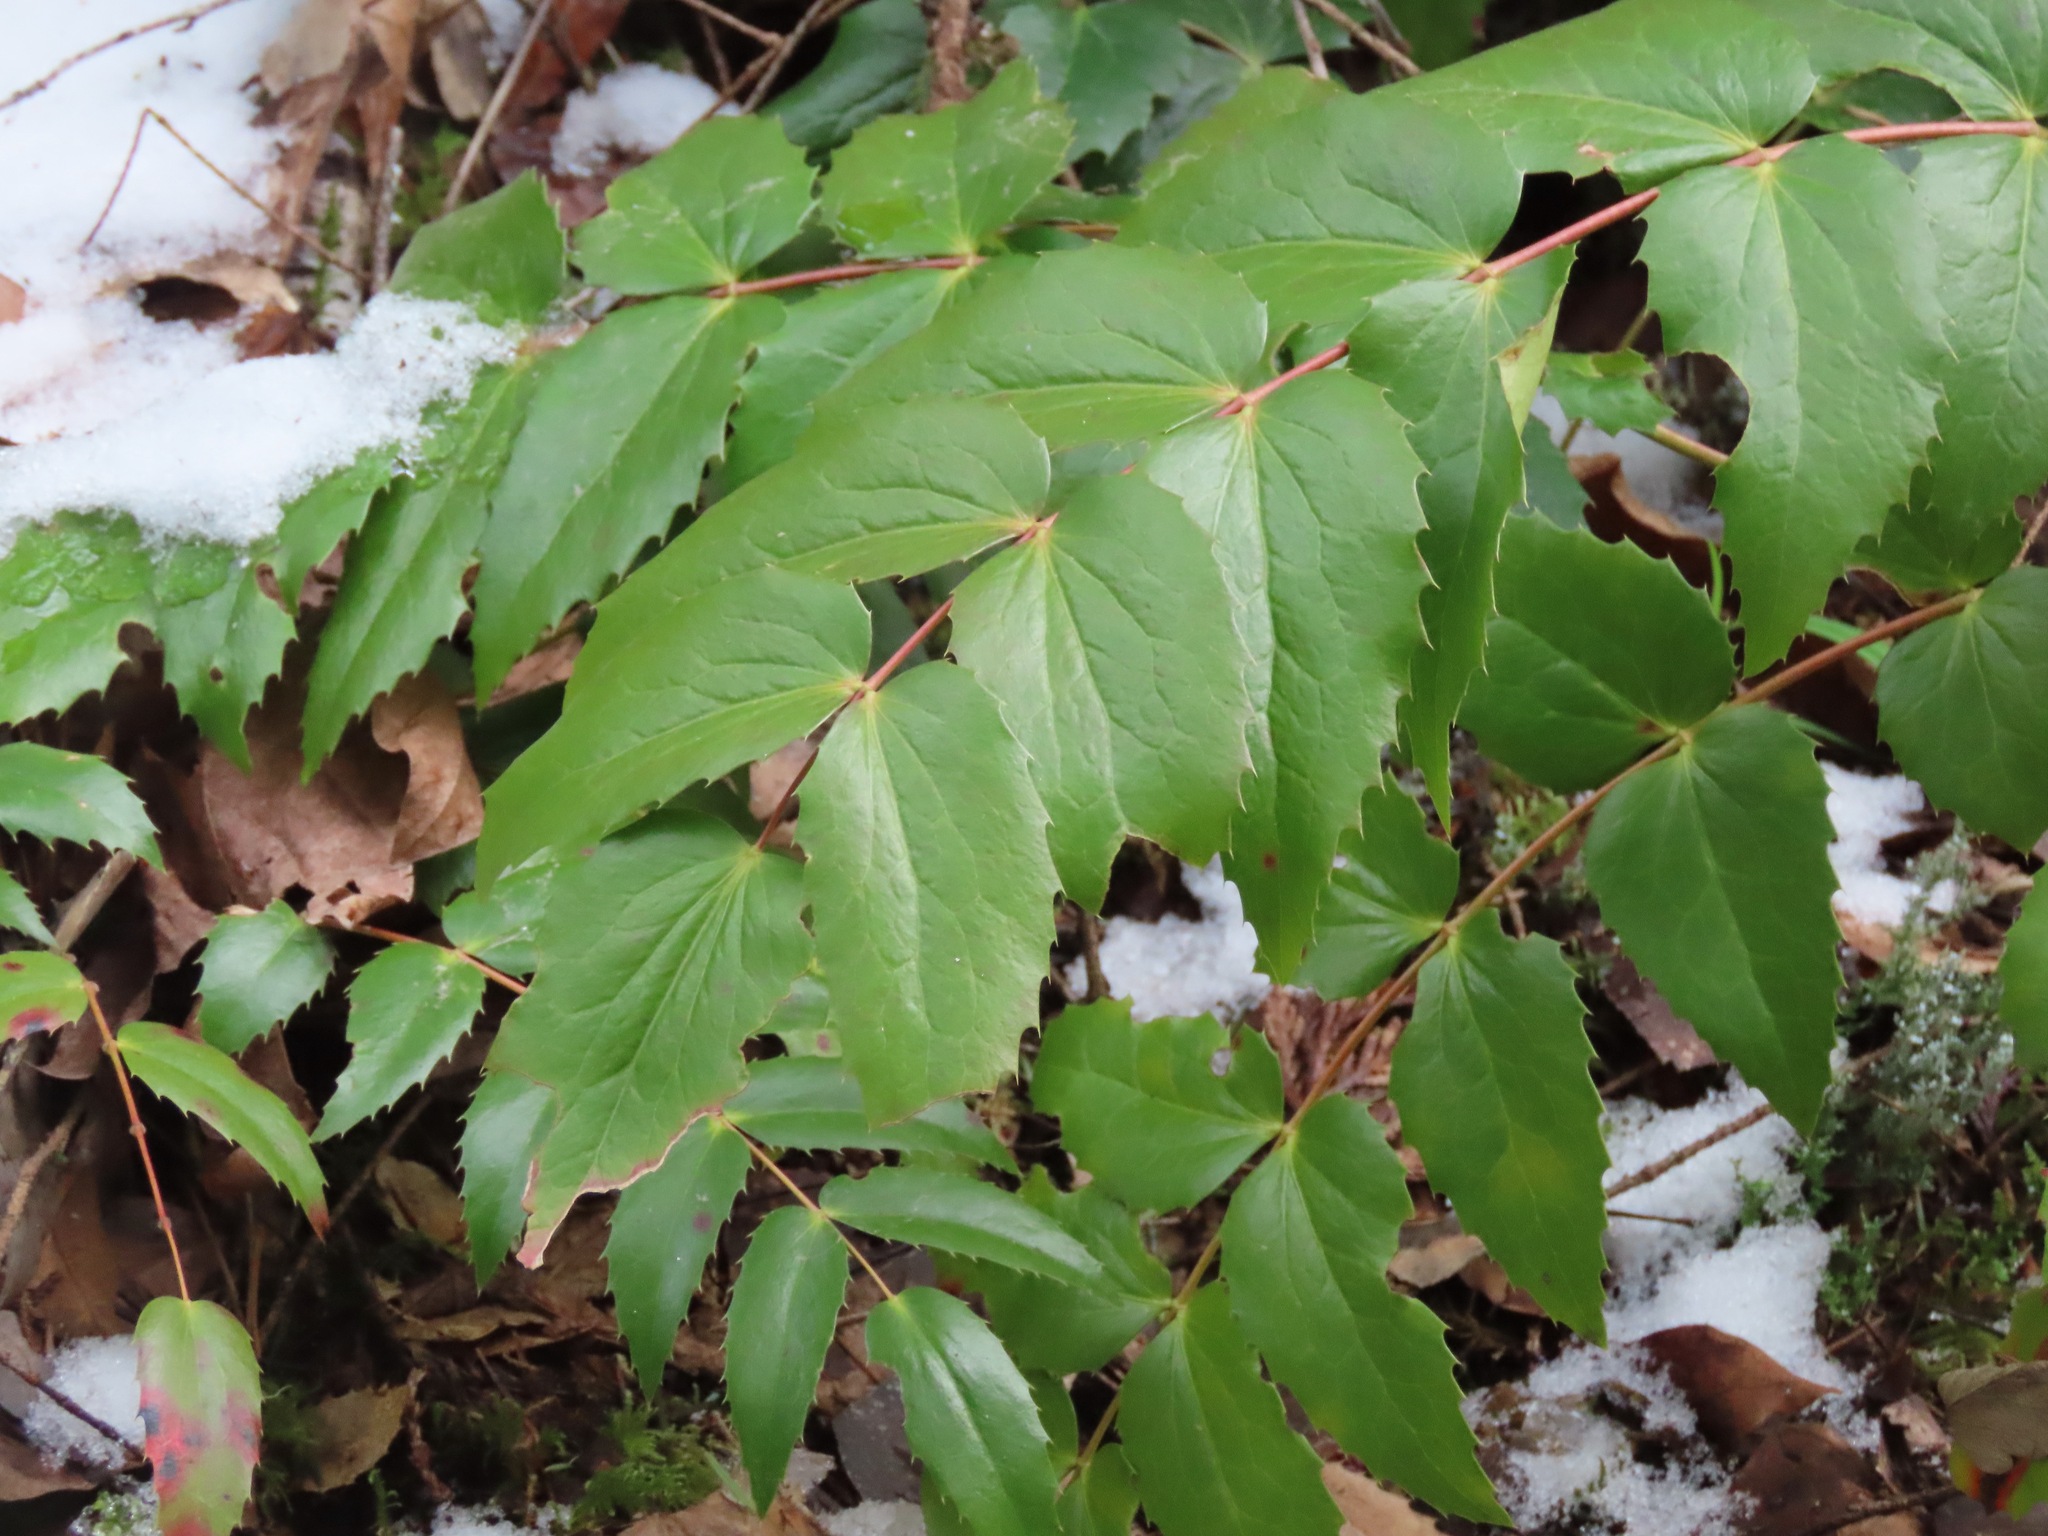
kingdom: Plantae
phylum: Tracheophyta
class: Magnoliopsida
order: Ranunculales
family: Berberidaceae
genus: Mahonia
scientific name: Mahonia nervosa
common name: Cascade oregon-grape
